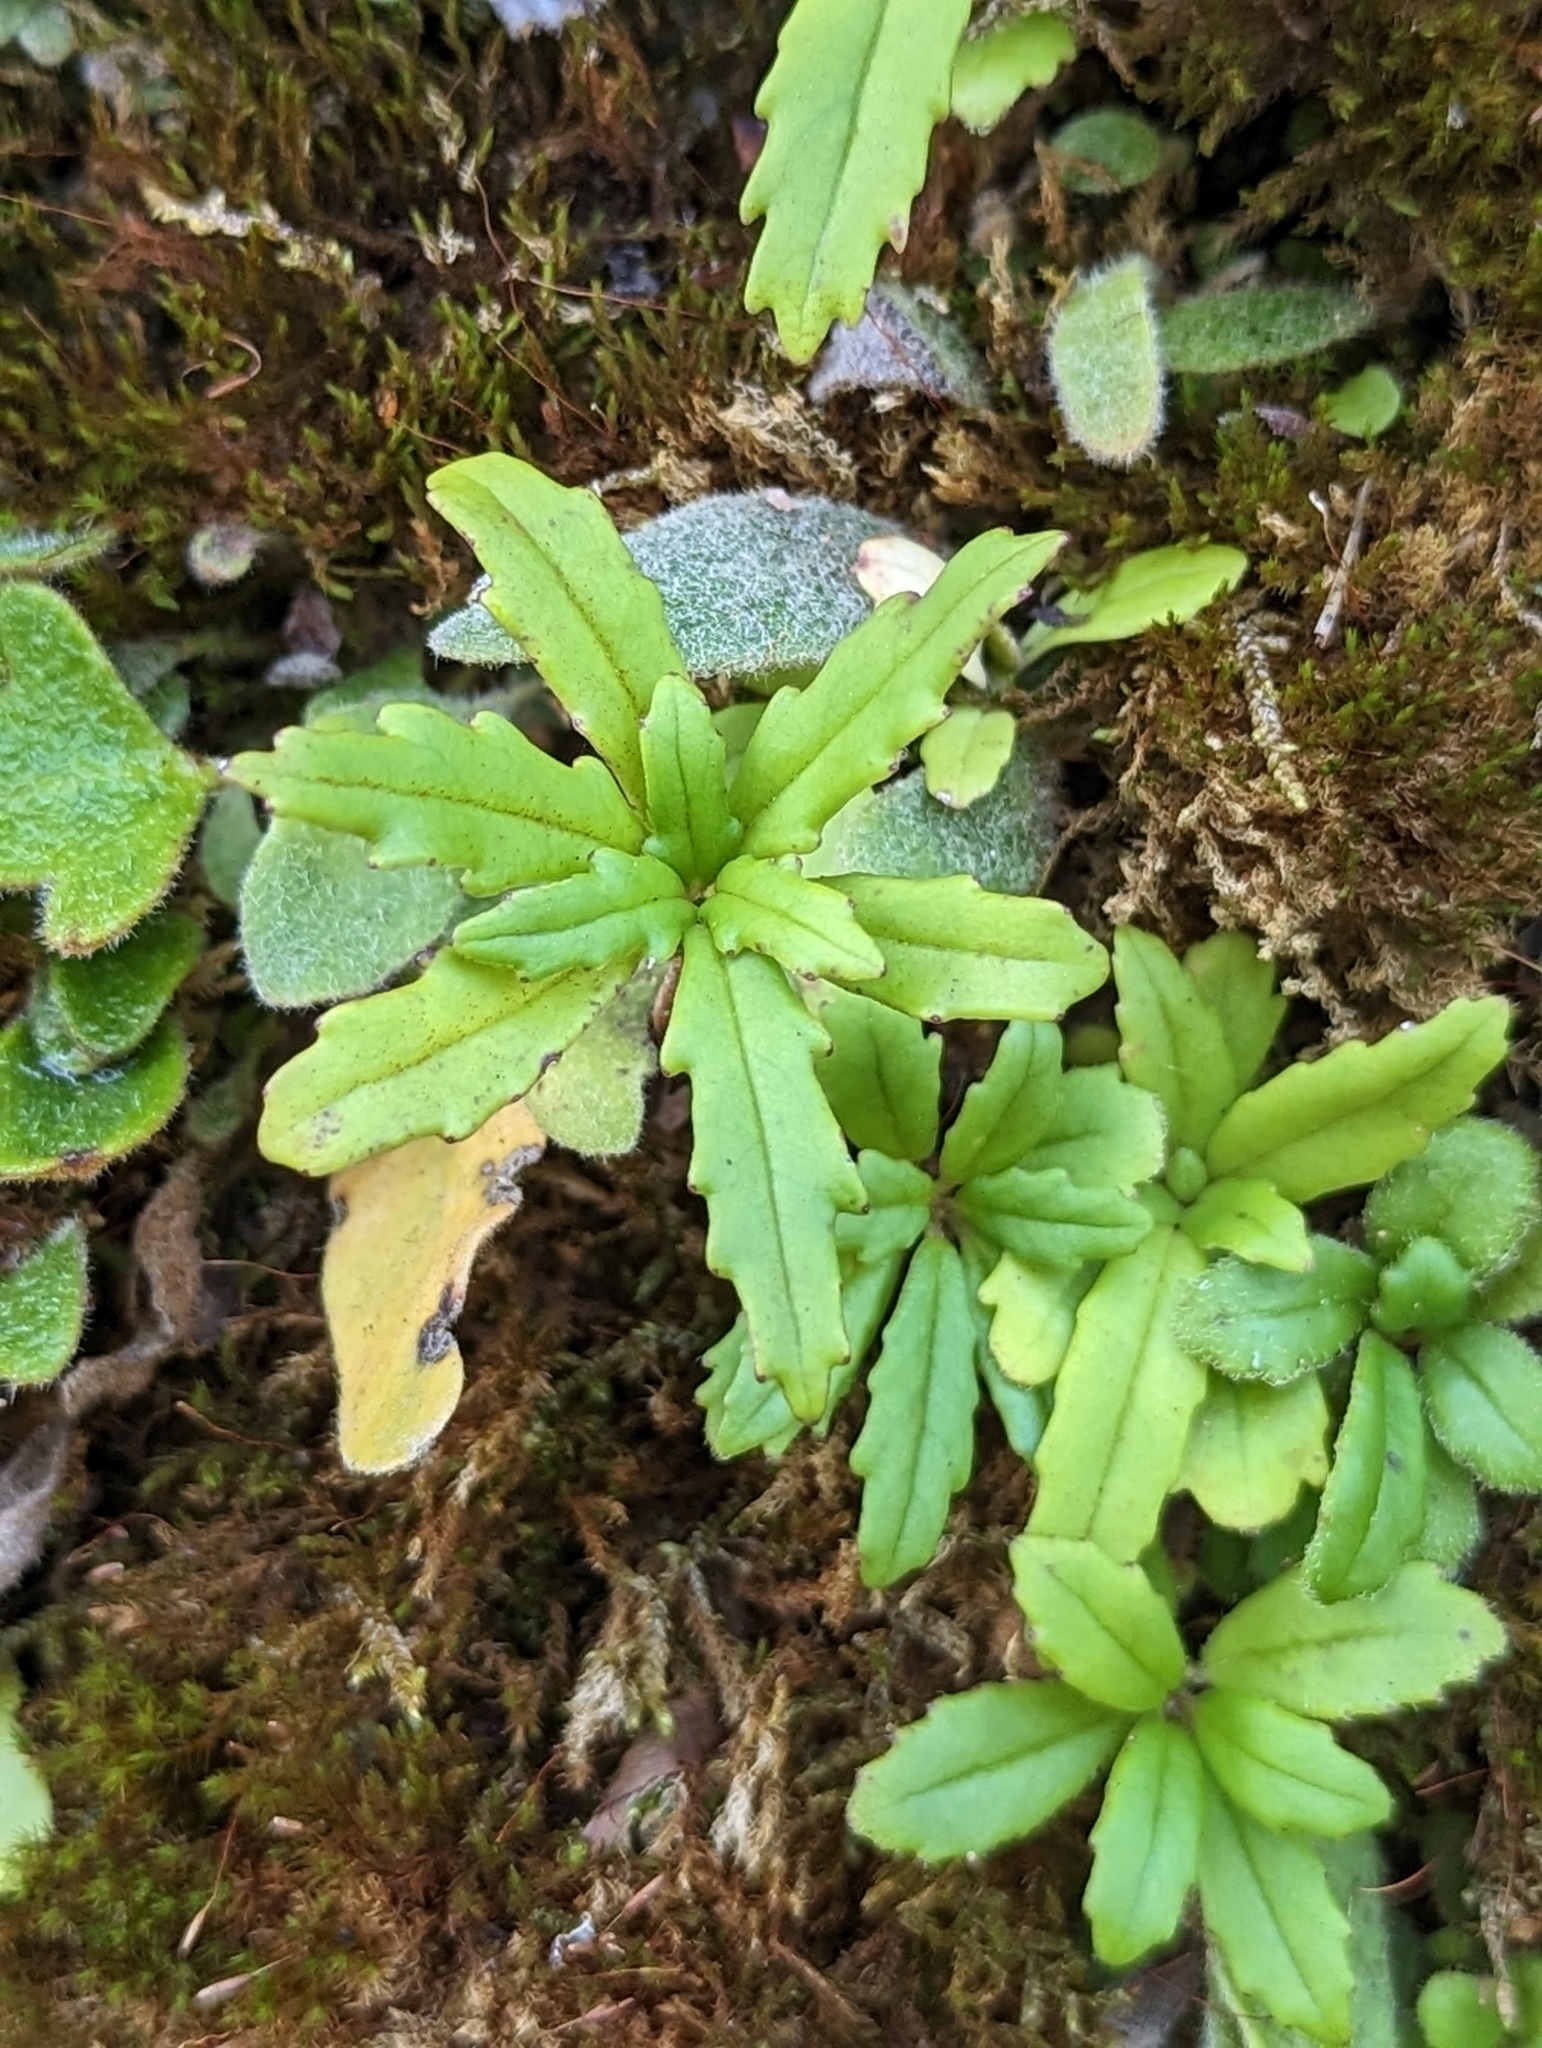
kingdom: Plantae
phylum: Tracheophyta
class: Magnoliopsida
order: Lamiales
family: Gesneriaceae
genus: Lysionotus
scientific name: Lysionotus pauciflorus
